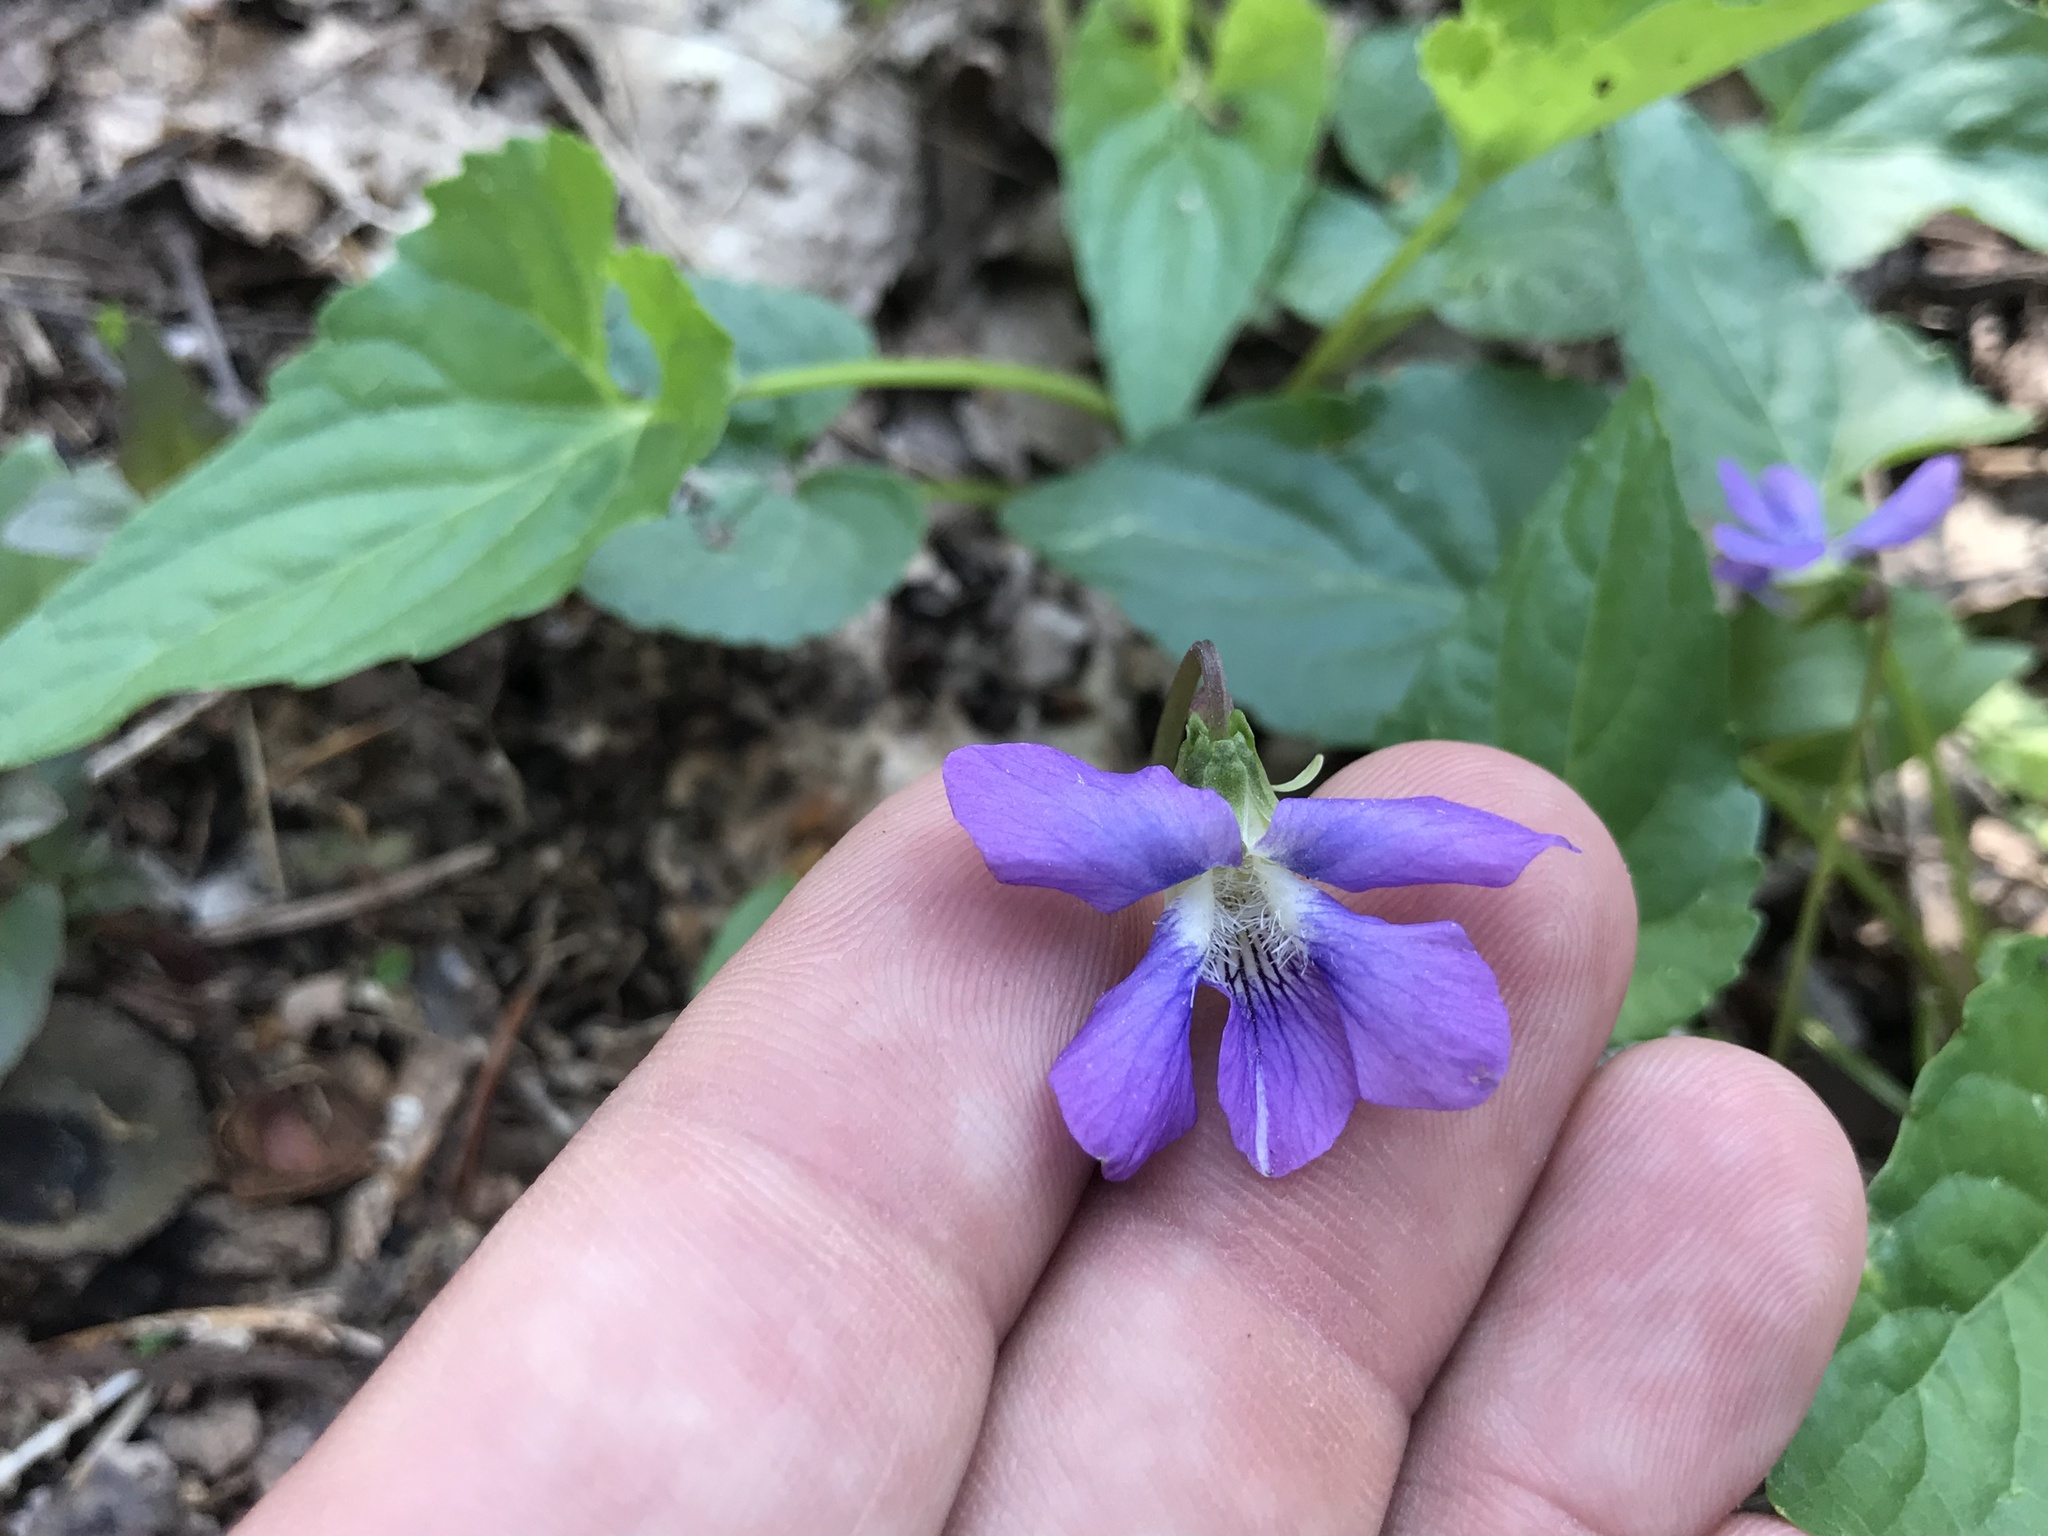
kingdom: Plantae
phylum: Tracheophyta
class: Magnoliopsida
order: Malpighiales
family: Violaceae
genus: Viola
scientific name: Viola sororia
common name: Dooryard violet
